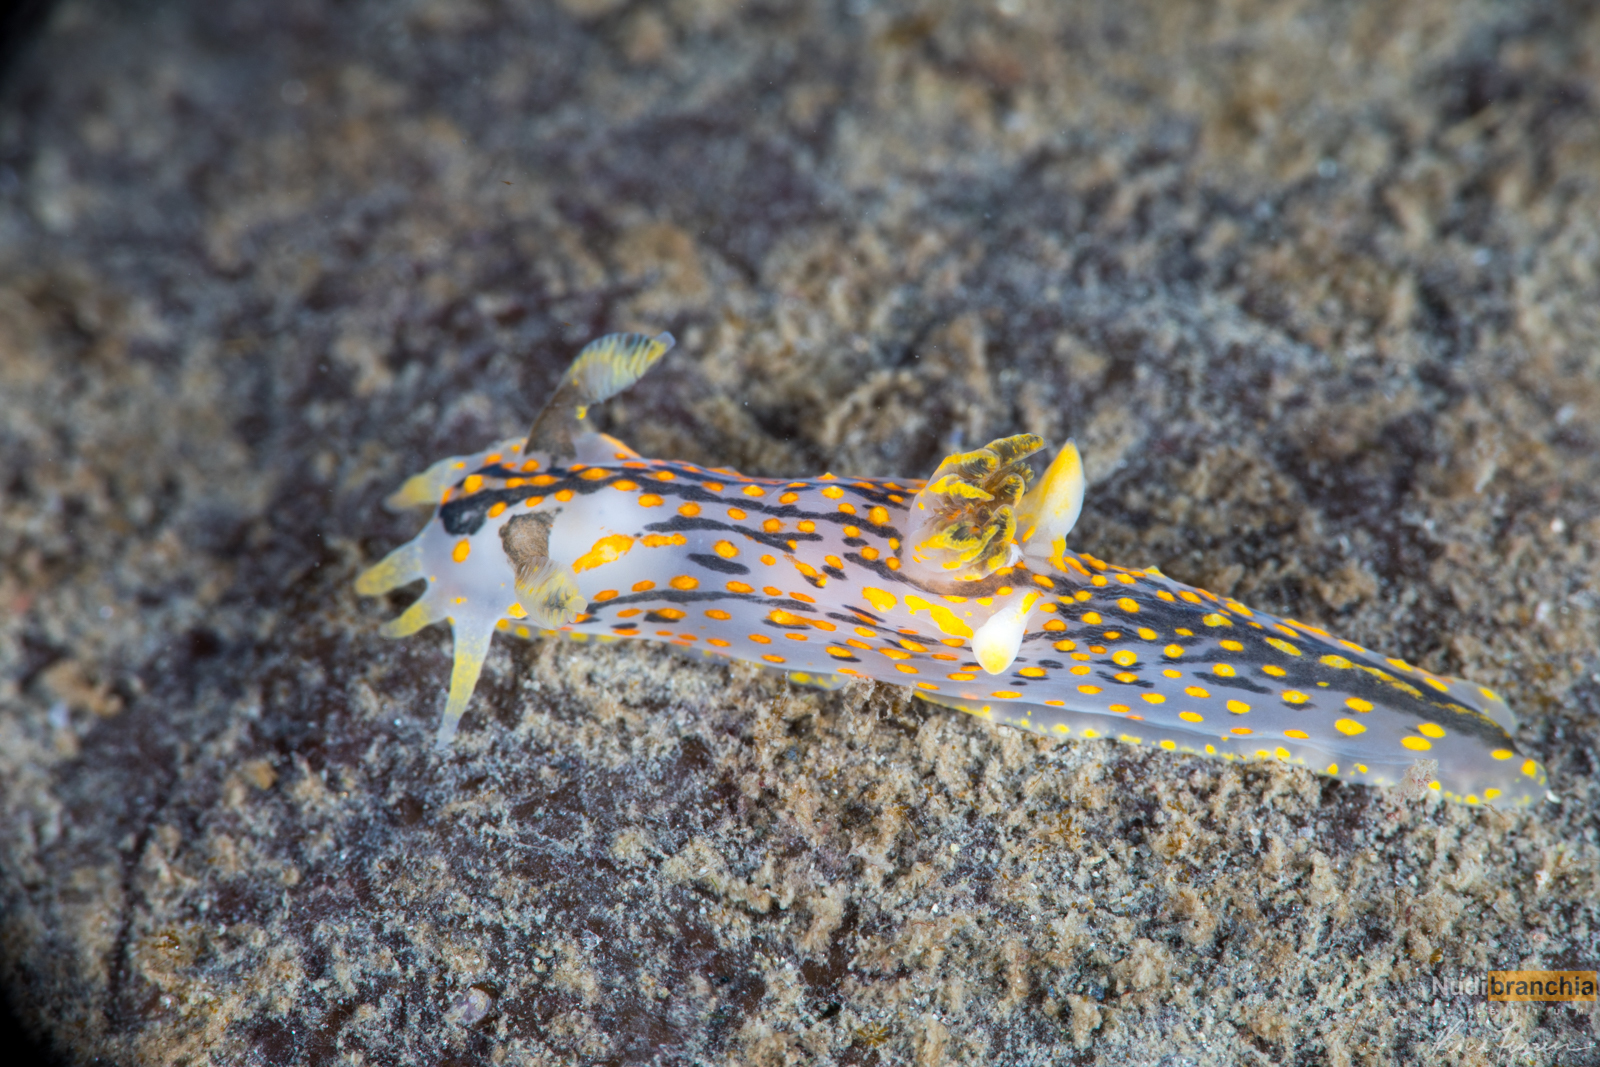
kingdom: Animalia
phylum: Mollusca
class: Gastropoda
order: Nudibranchia
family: Polyceridae
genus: Polycera
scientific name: Polycera quadrilineata
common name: Four-striped polycera
